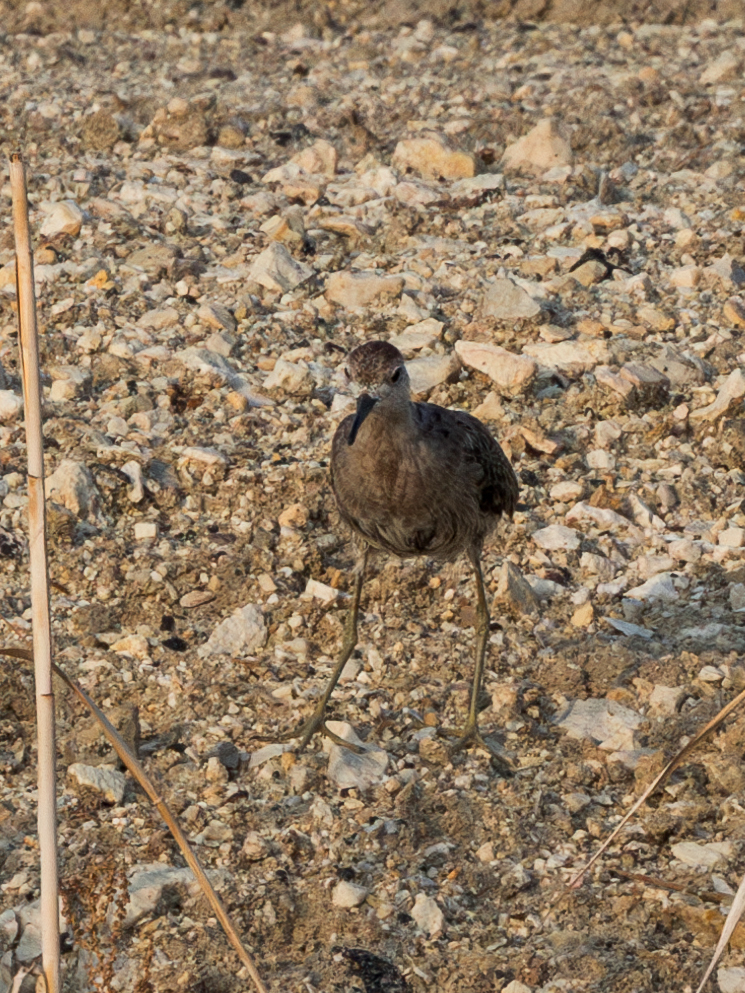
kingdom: Animalia
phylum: Chordata
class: Aves
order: Charadriiformes
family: Scolopacidae
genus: Calidris
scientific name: Calidris pugnax
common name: Ruff
